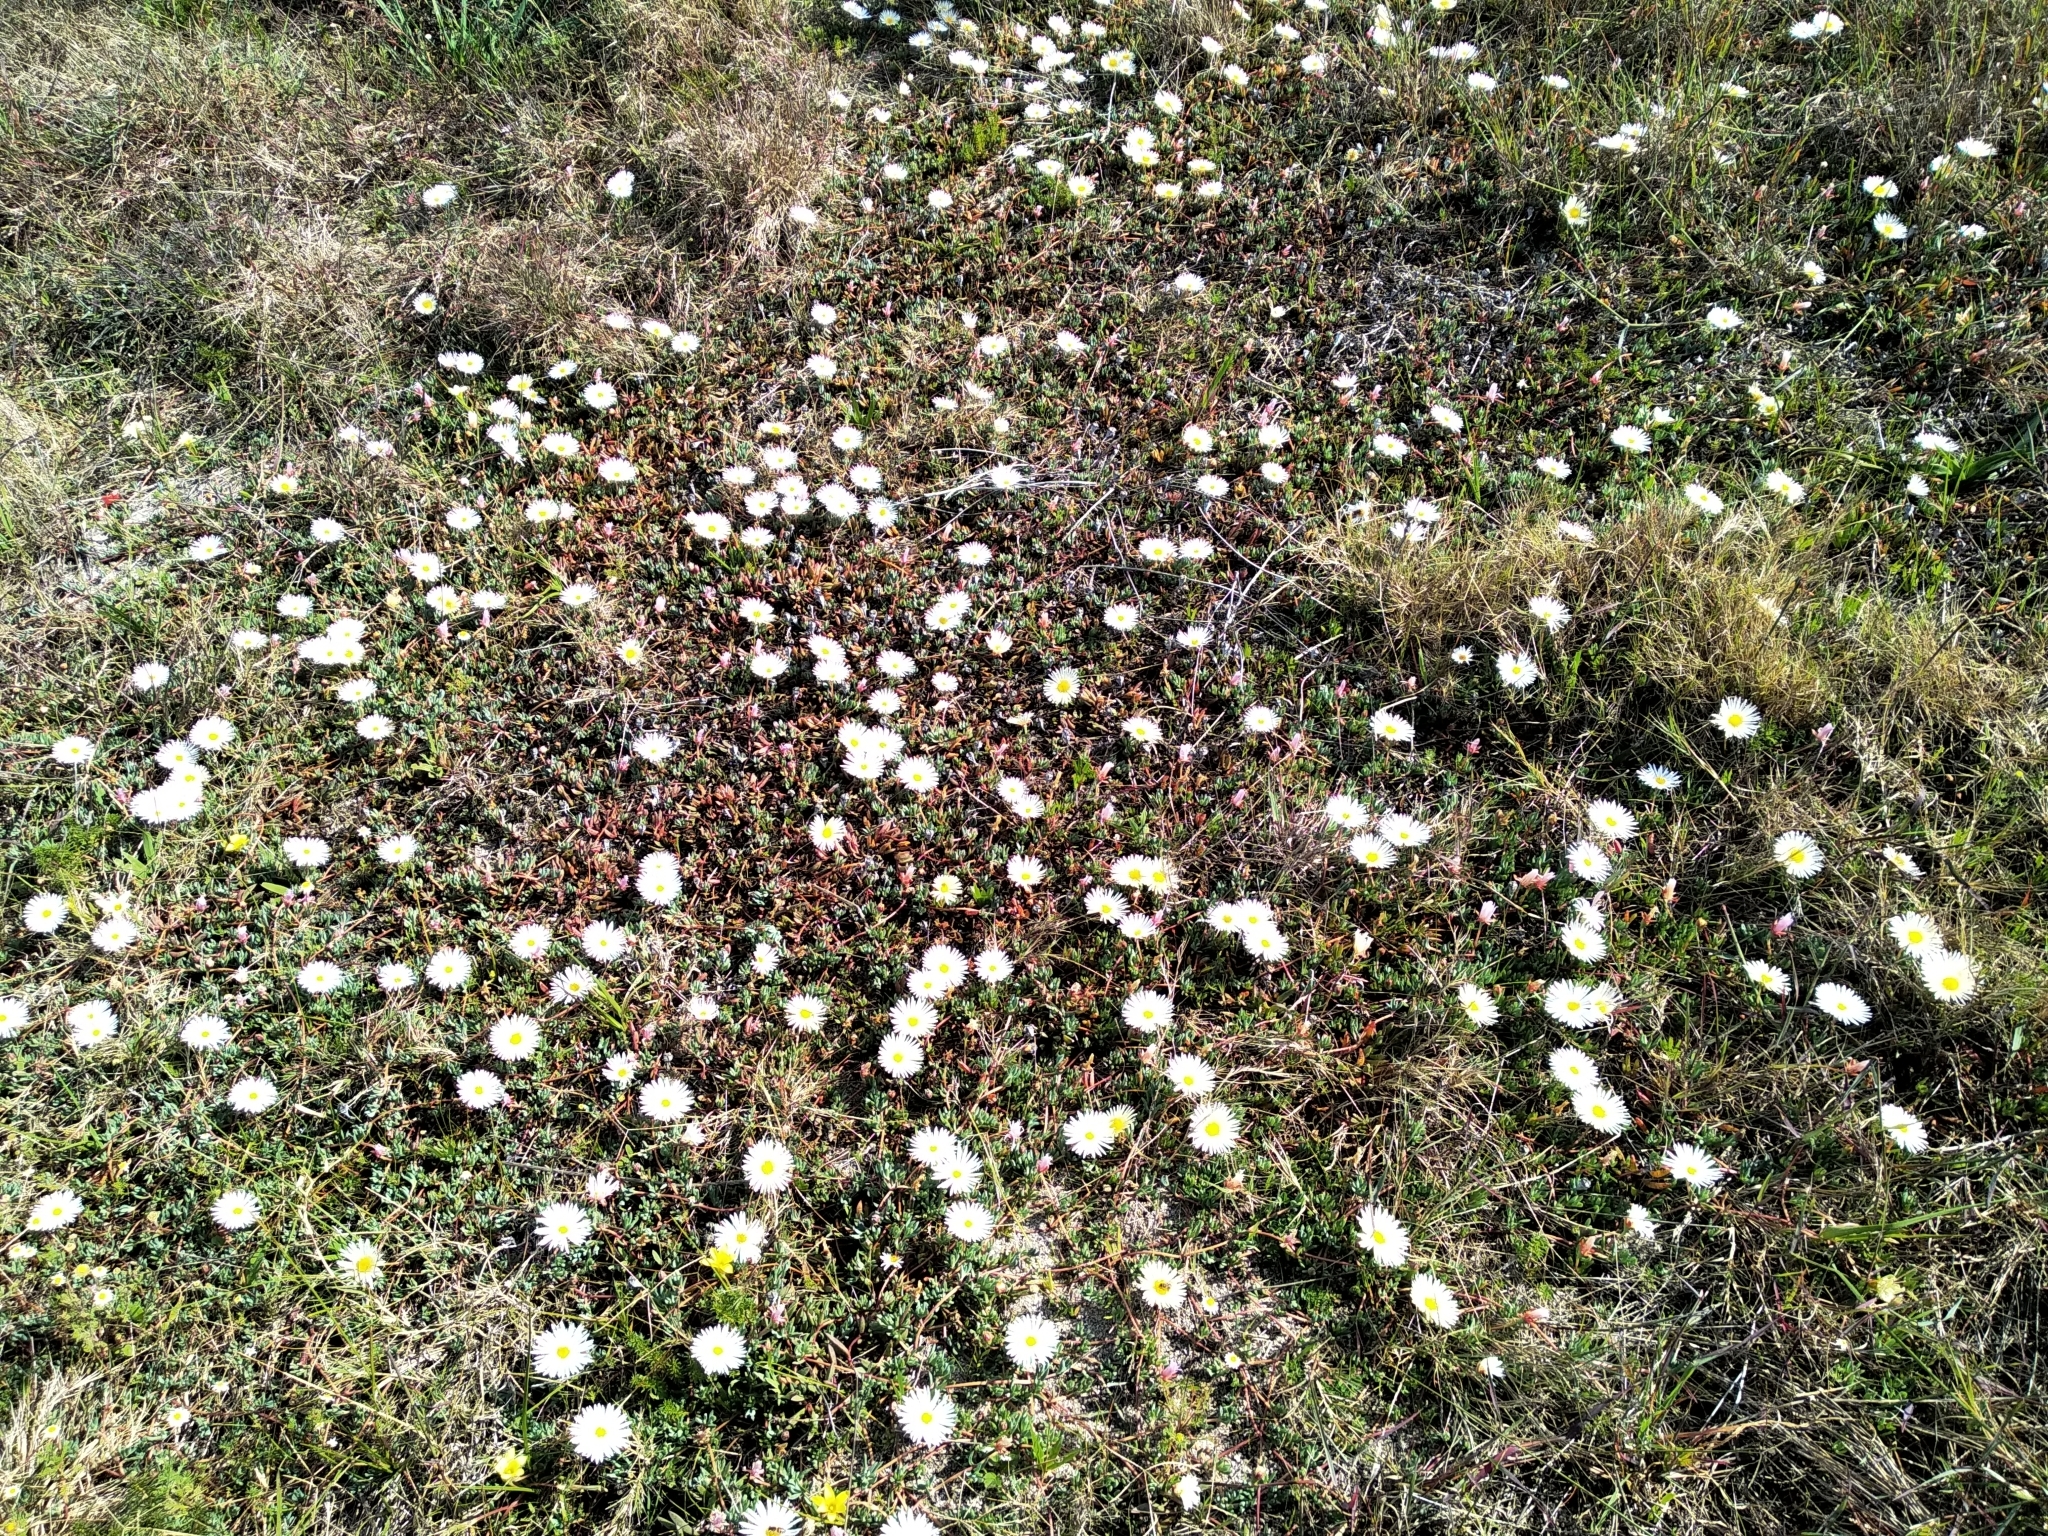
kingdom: Plantae
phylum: Tracheophyta
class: Magnoliopsida
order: Caryophyllales
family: Aizoaceae
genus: Lampranthus
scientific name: Lampranthus reptans
